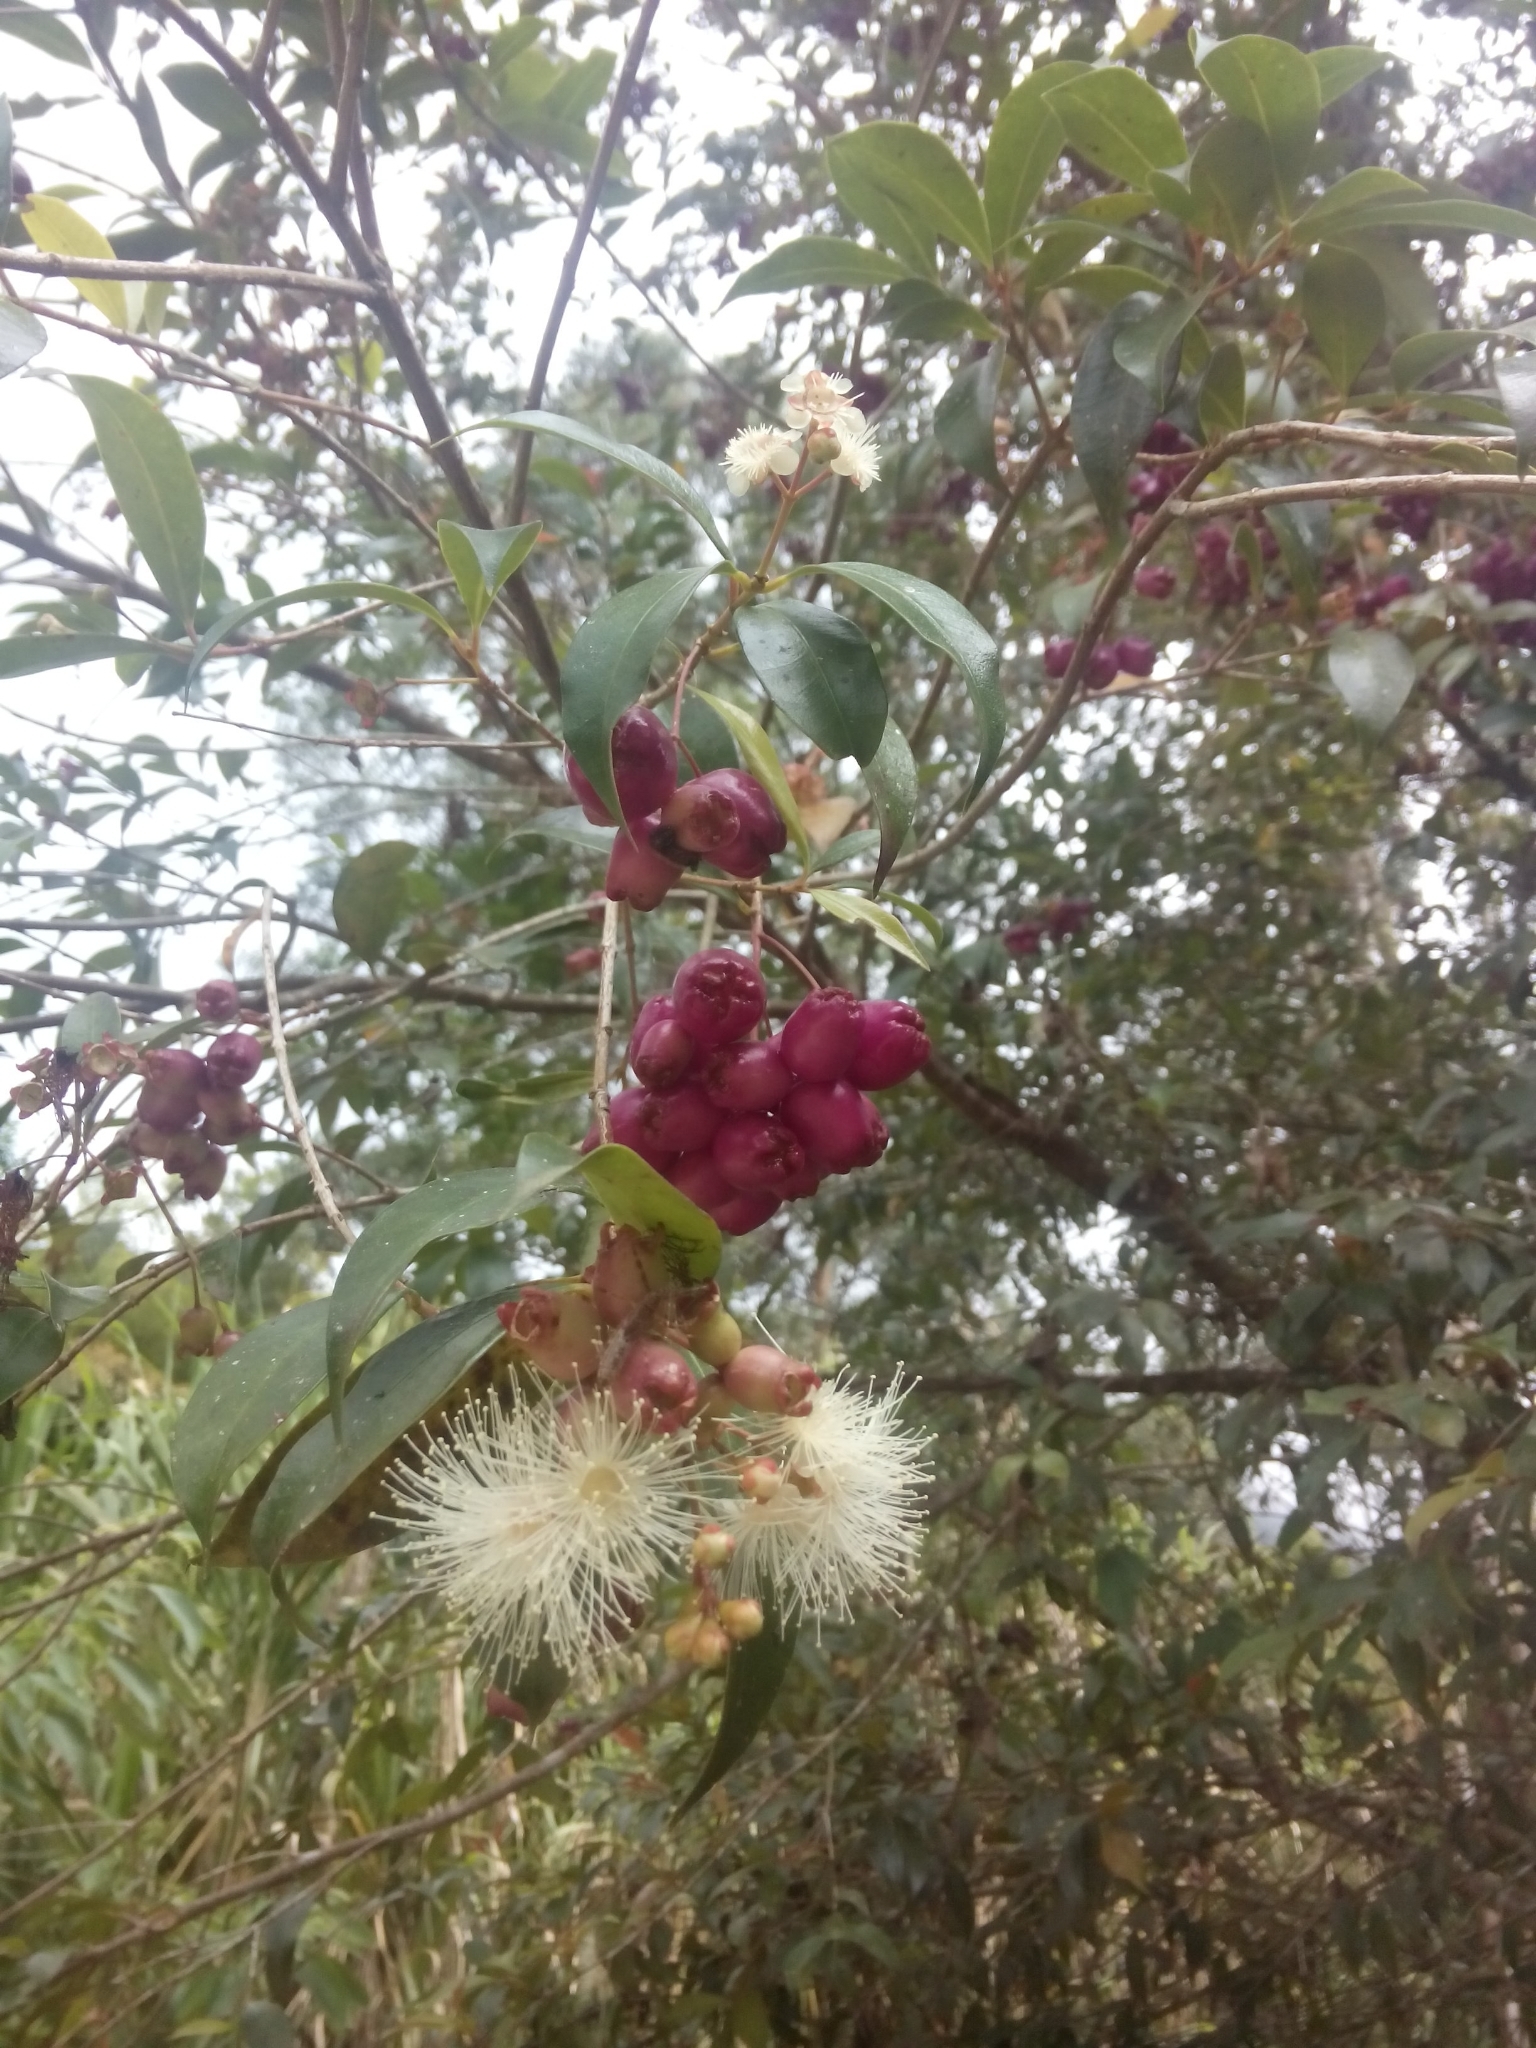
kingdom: Plantae
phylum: Tracheophyta
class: Magnoliopsida
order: Myrtales
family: Myrtaceae
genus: Syzygium
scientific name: Syzygium paniculatum
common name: Magenta lilly-pilly
